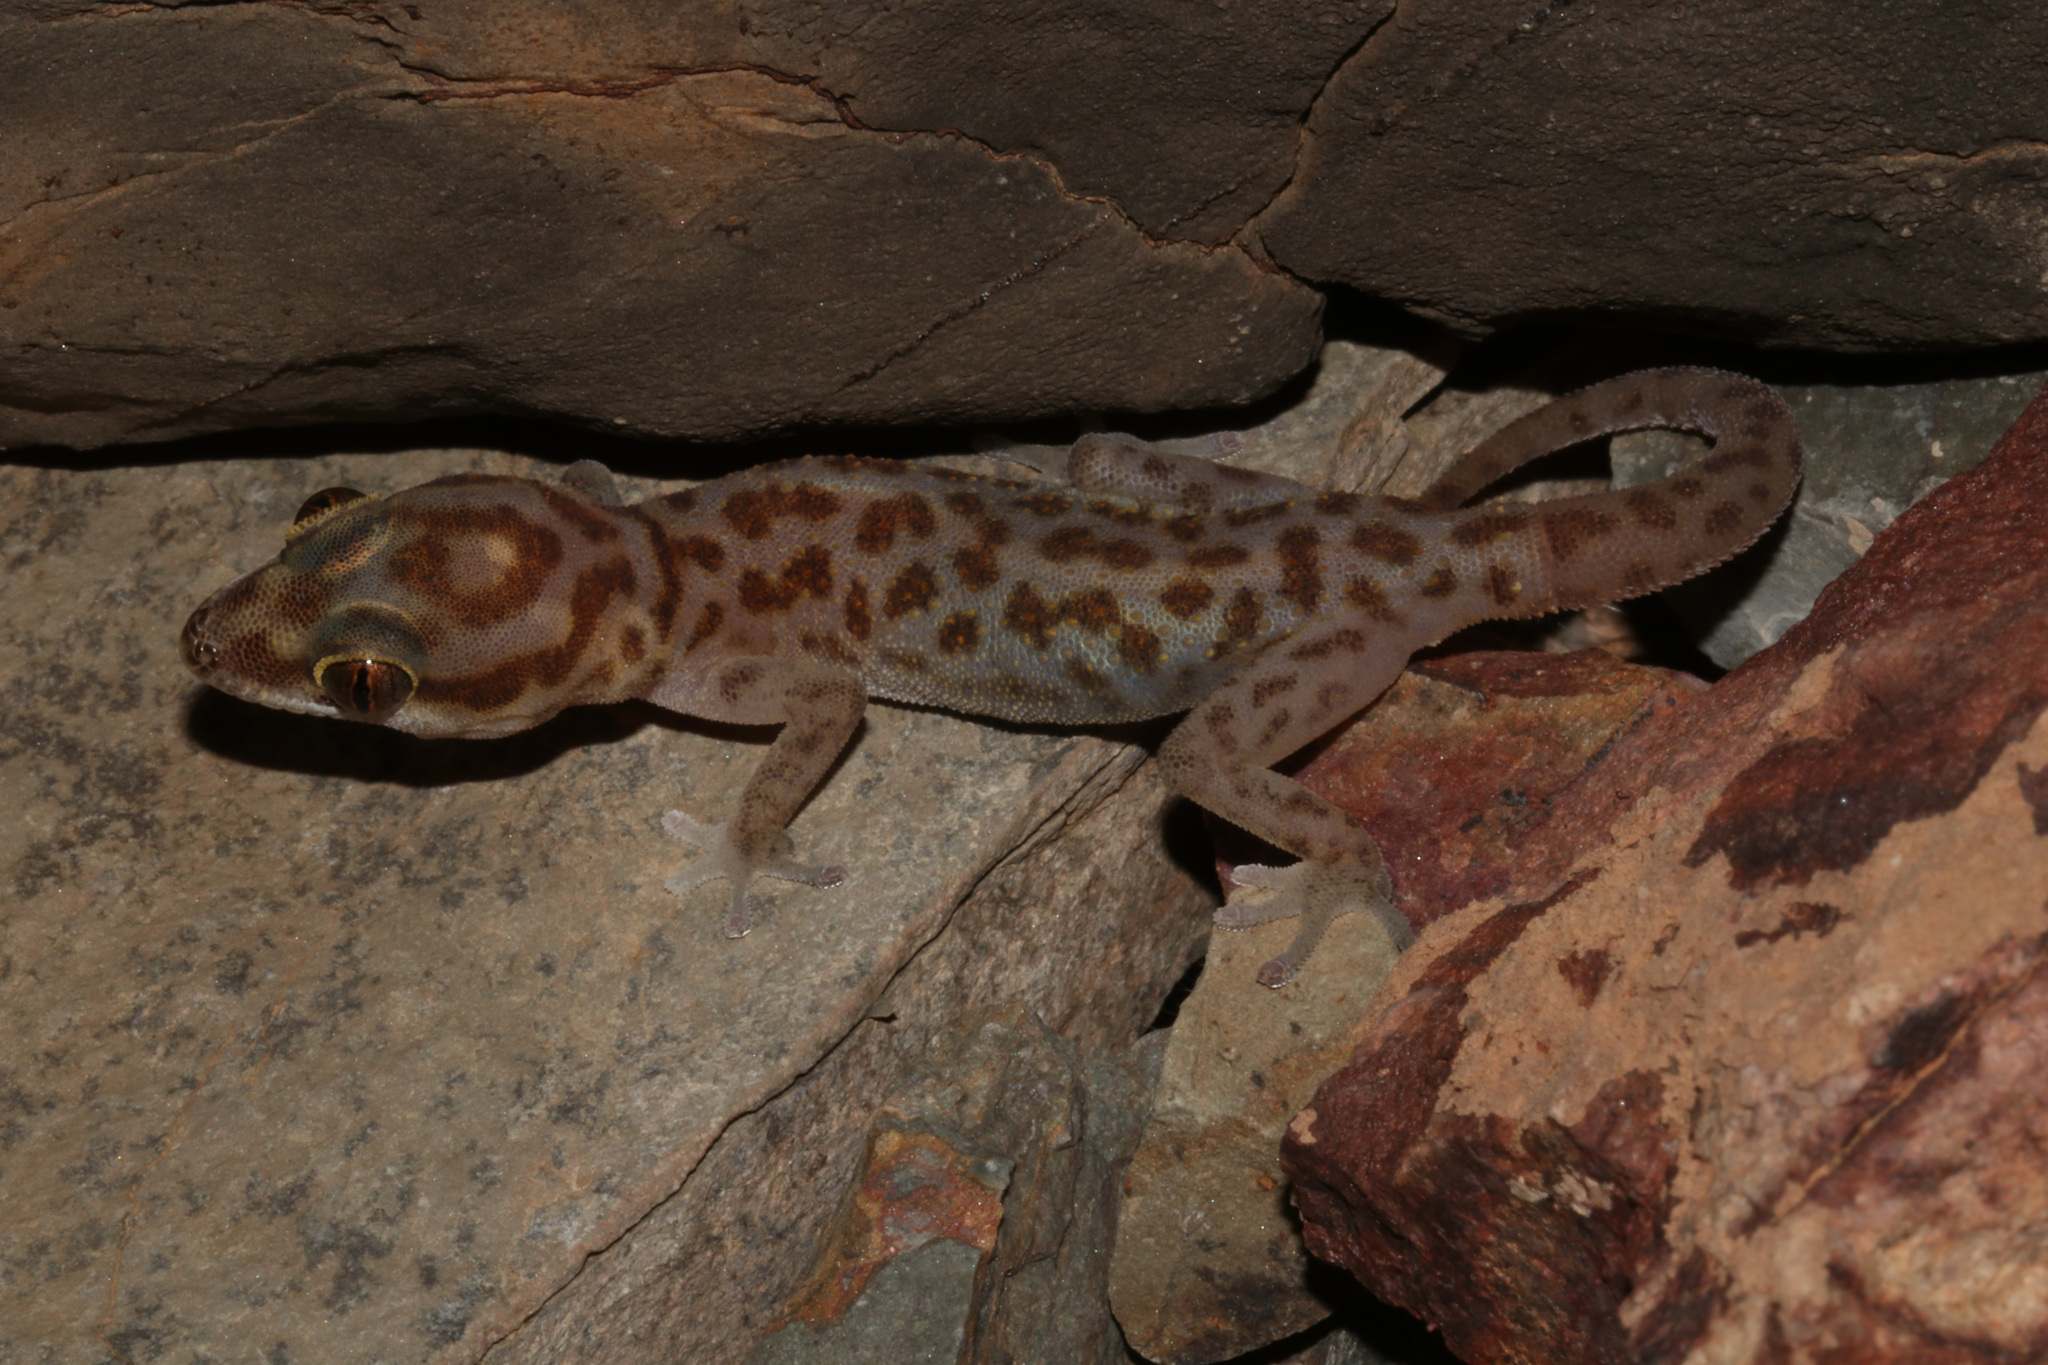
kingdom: Animalia
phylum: Chordata
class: Squamata
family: Gekkonidae
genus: Pachydactylus
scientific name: Pachydactylus carinatus
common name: Richtersveld gecko
